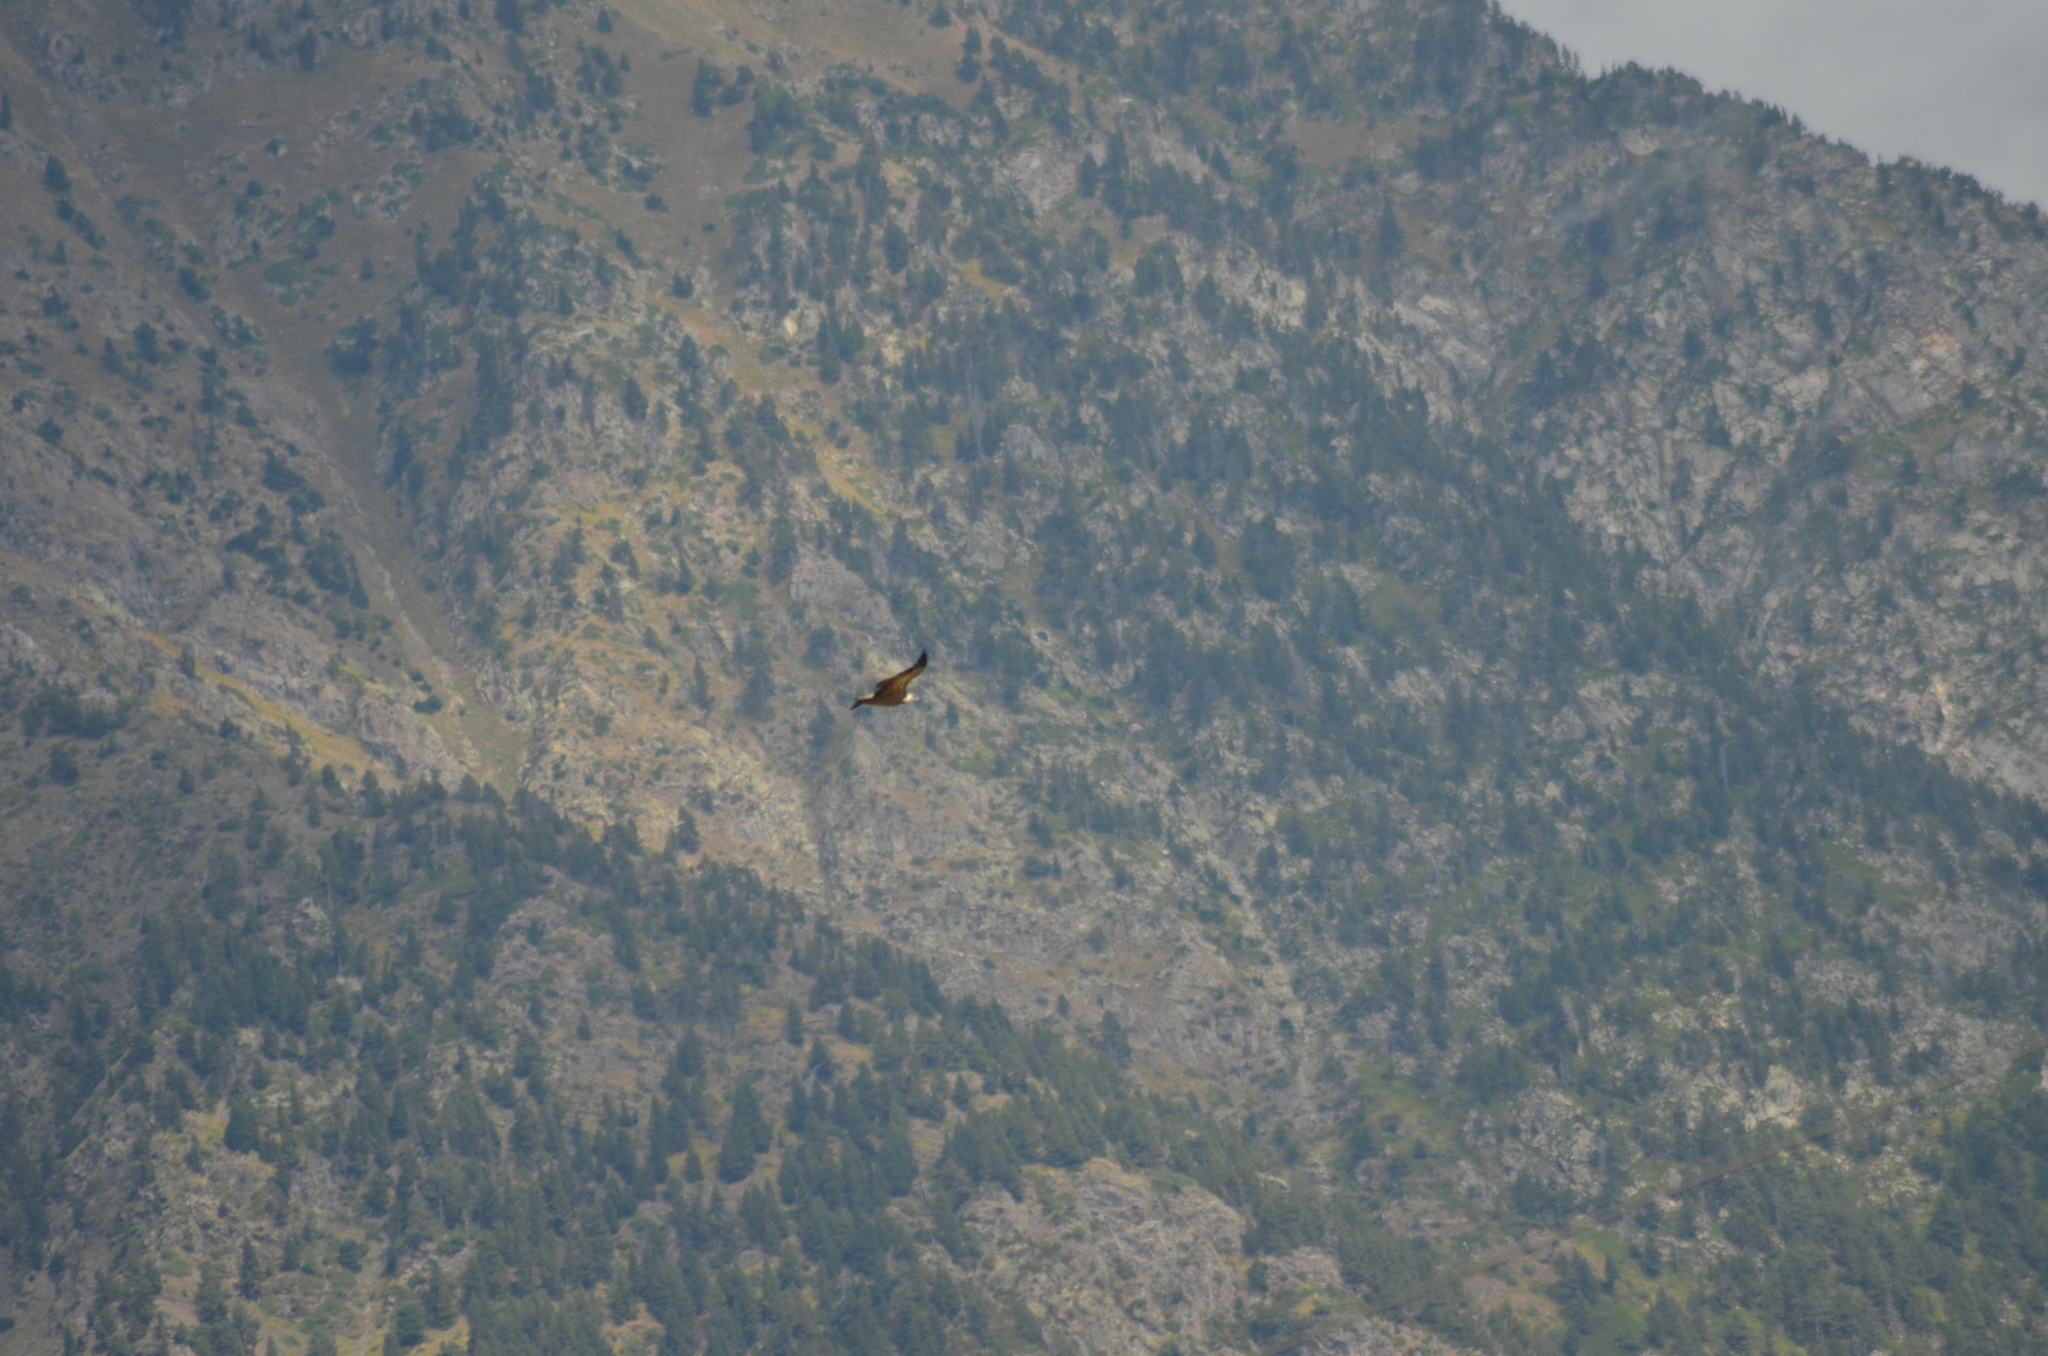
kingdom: Animalia
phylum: Chordata
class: Aves
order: Accipitriformes
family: Accipitridae
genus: Gyps
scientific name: Gyps fulvus
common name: Griffon vulture
